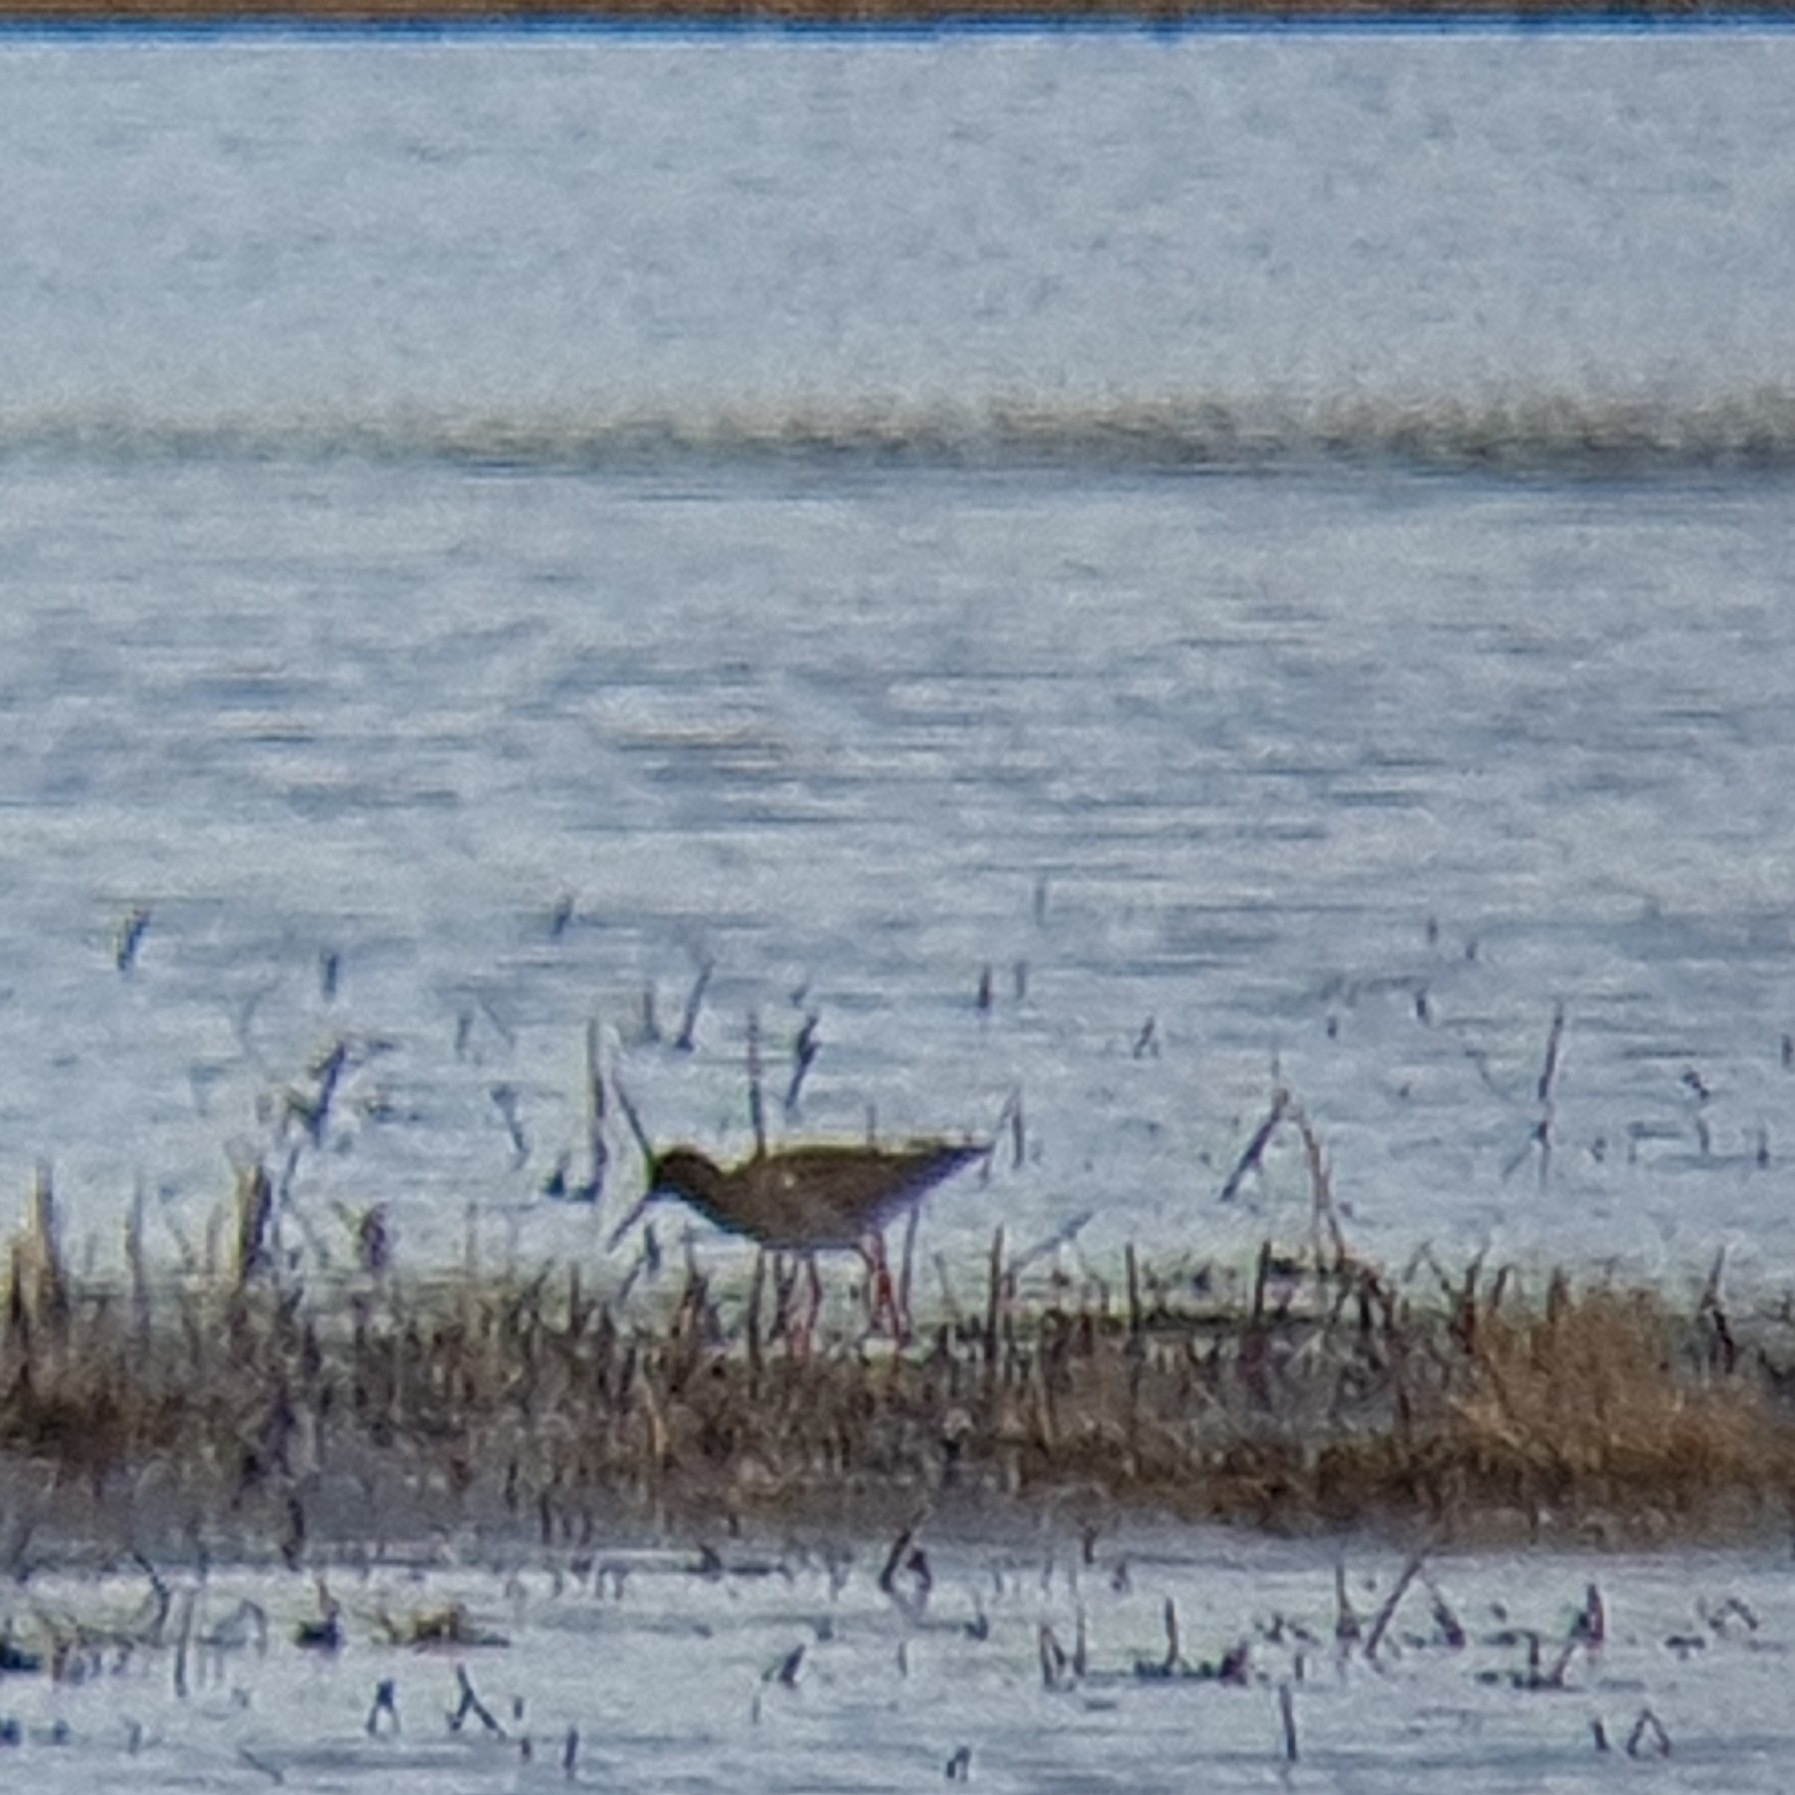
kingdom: Animalia
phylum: Chordata
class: Aves
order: Charadriiformes
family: Scolopacidae
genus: Tringa
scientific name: Tringa totanus
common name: Common redshank
